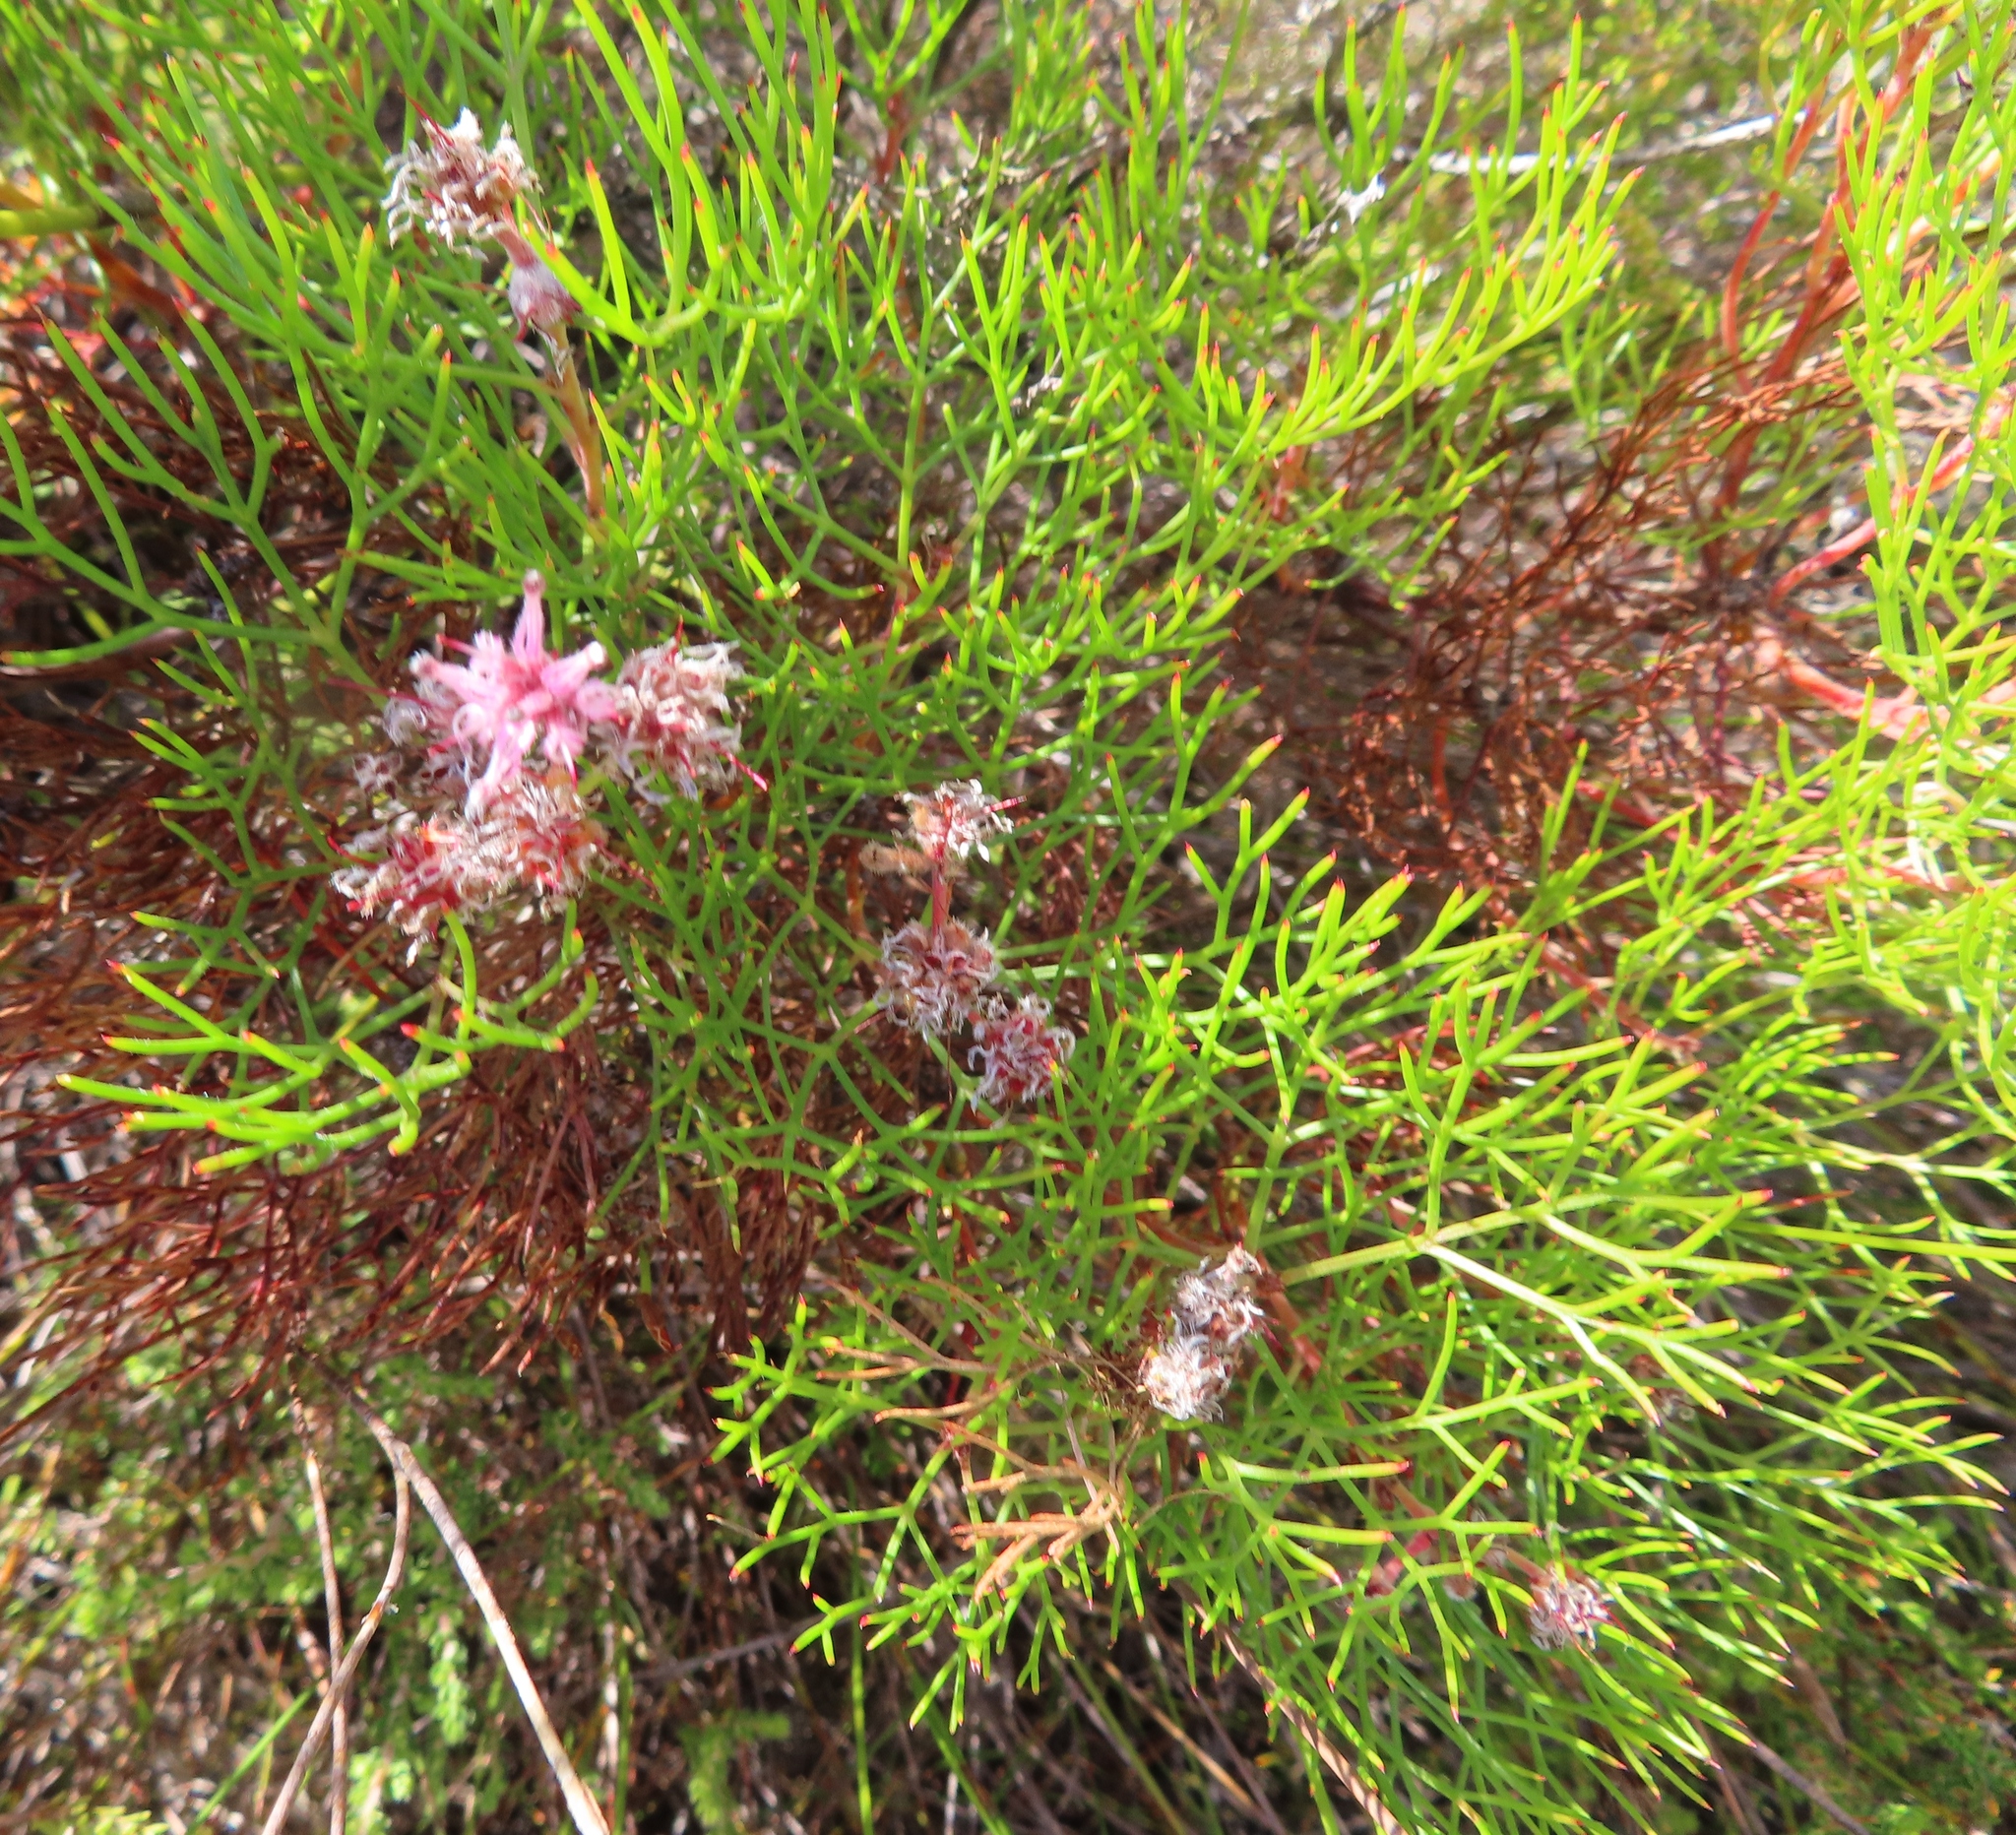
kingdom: Plantae
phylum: Tracheophyta
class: Magnoliopsida
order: Proteales
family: Proteaceae
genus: Serruria
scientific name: Serruria fasciflora
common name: Common pin spiderhead
